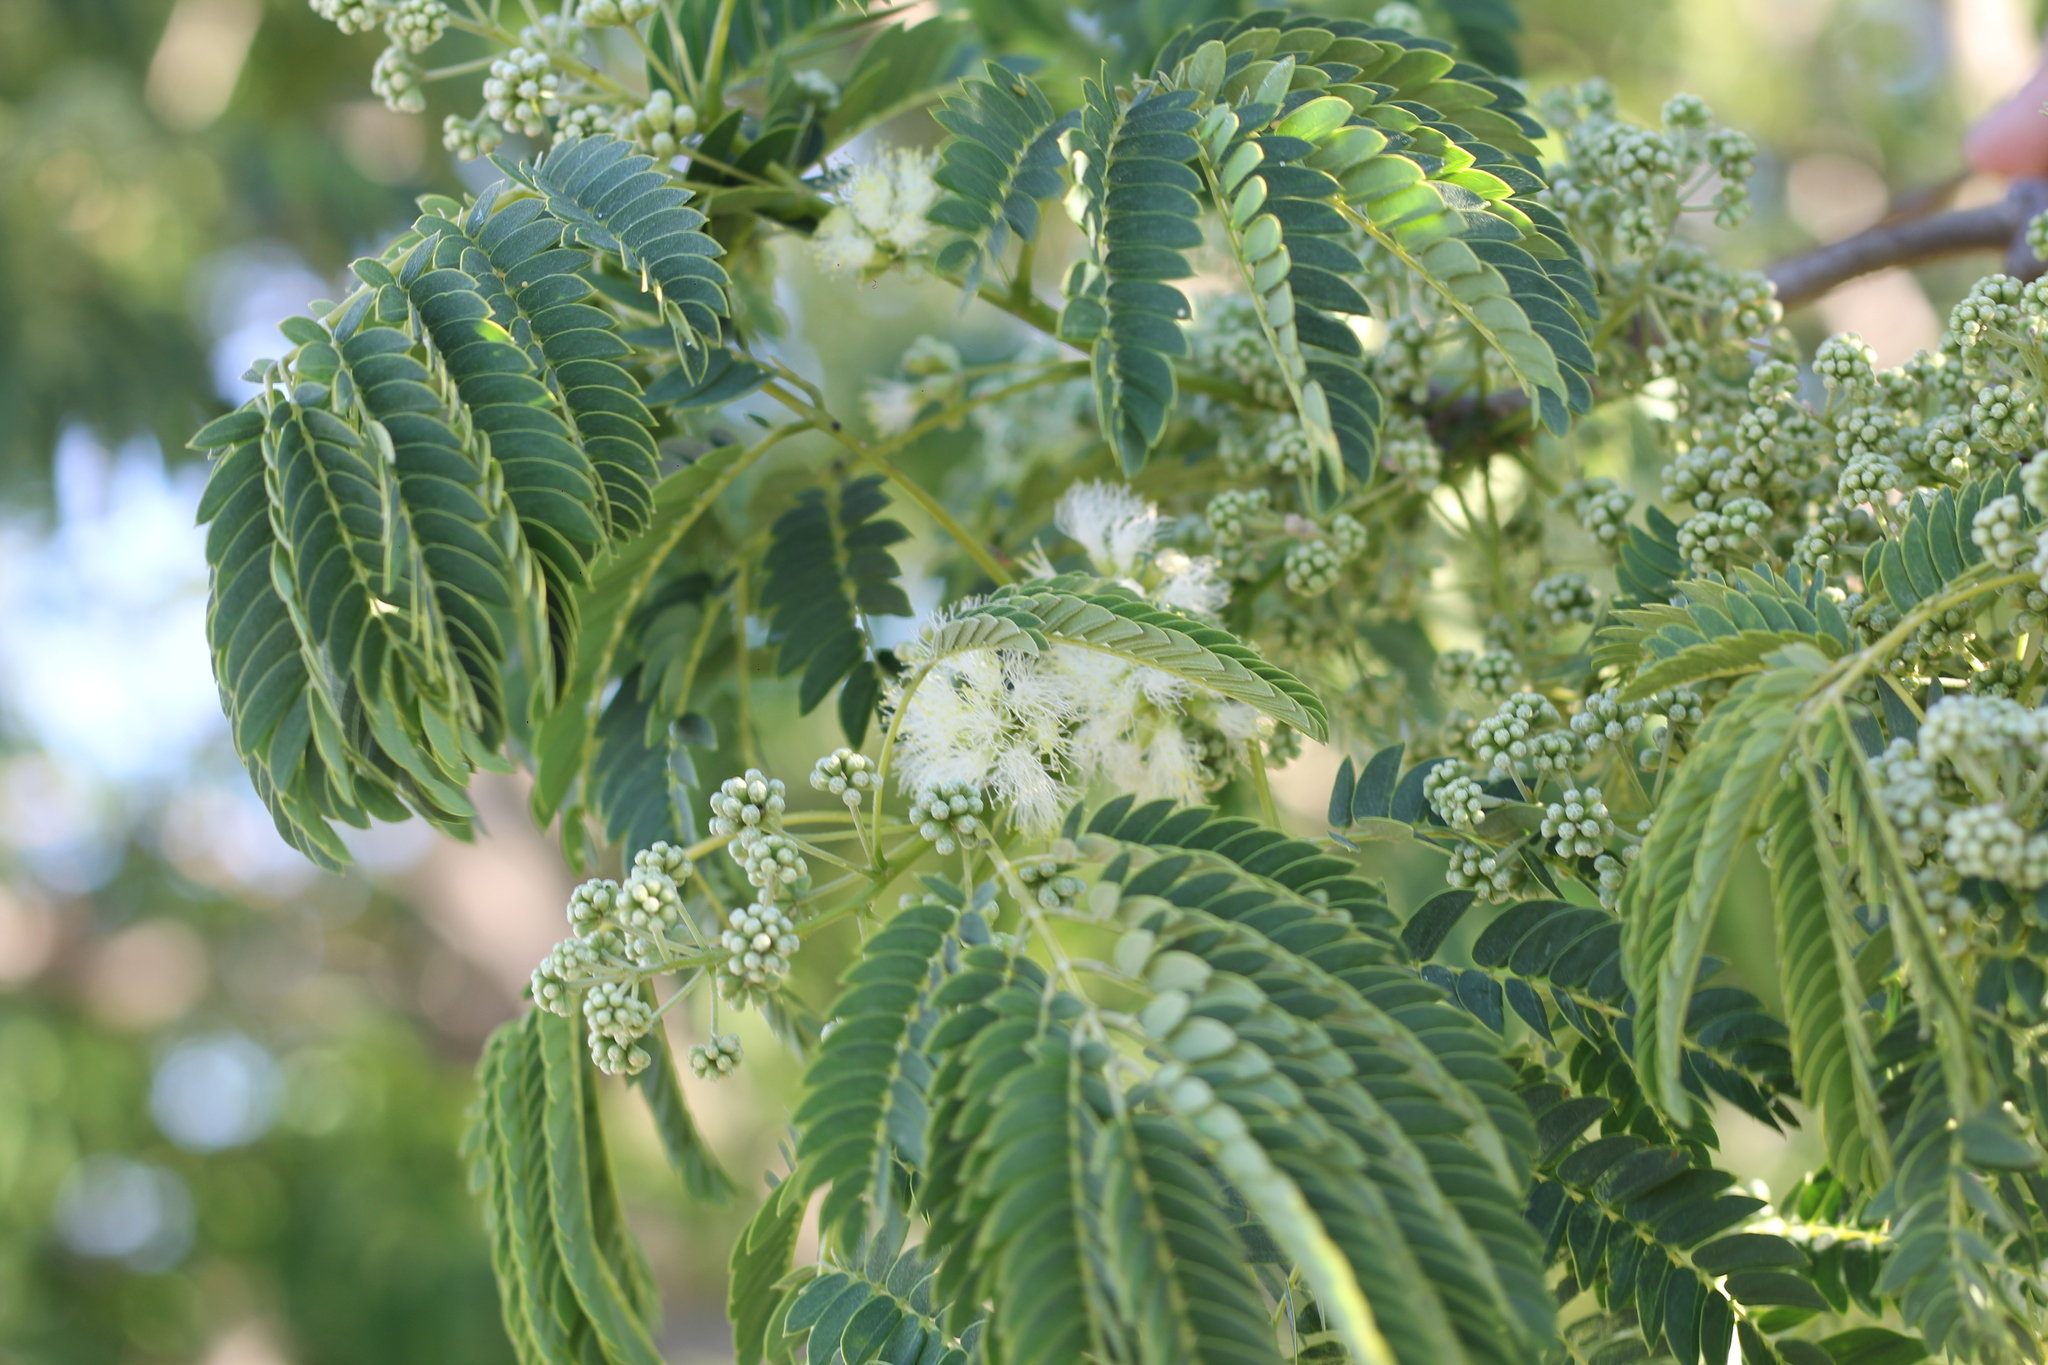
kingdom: Plantae
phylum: Tracheophyta
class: Magnoliopsida
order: Fabales
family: Fabaceae
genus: Enterolobium
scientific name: Enterolobium contortisiliquum
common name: Pacara earpod tree
